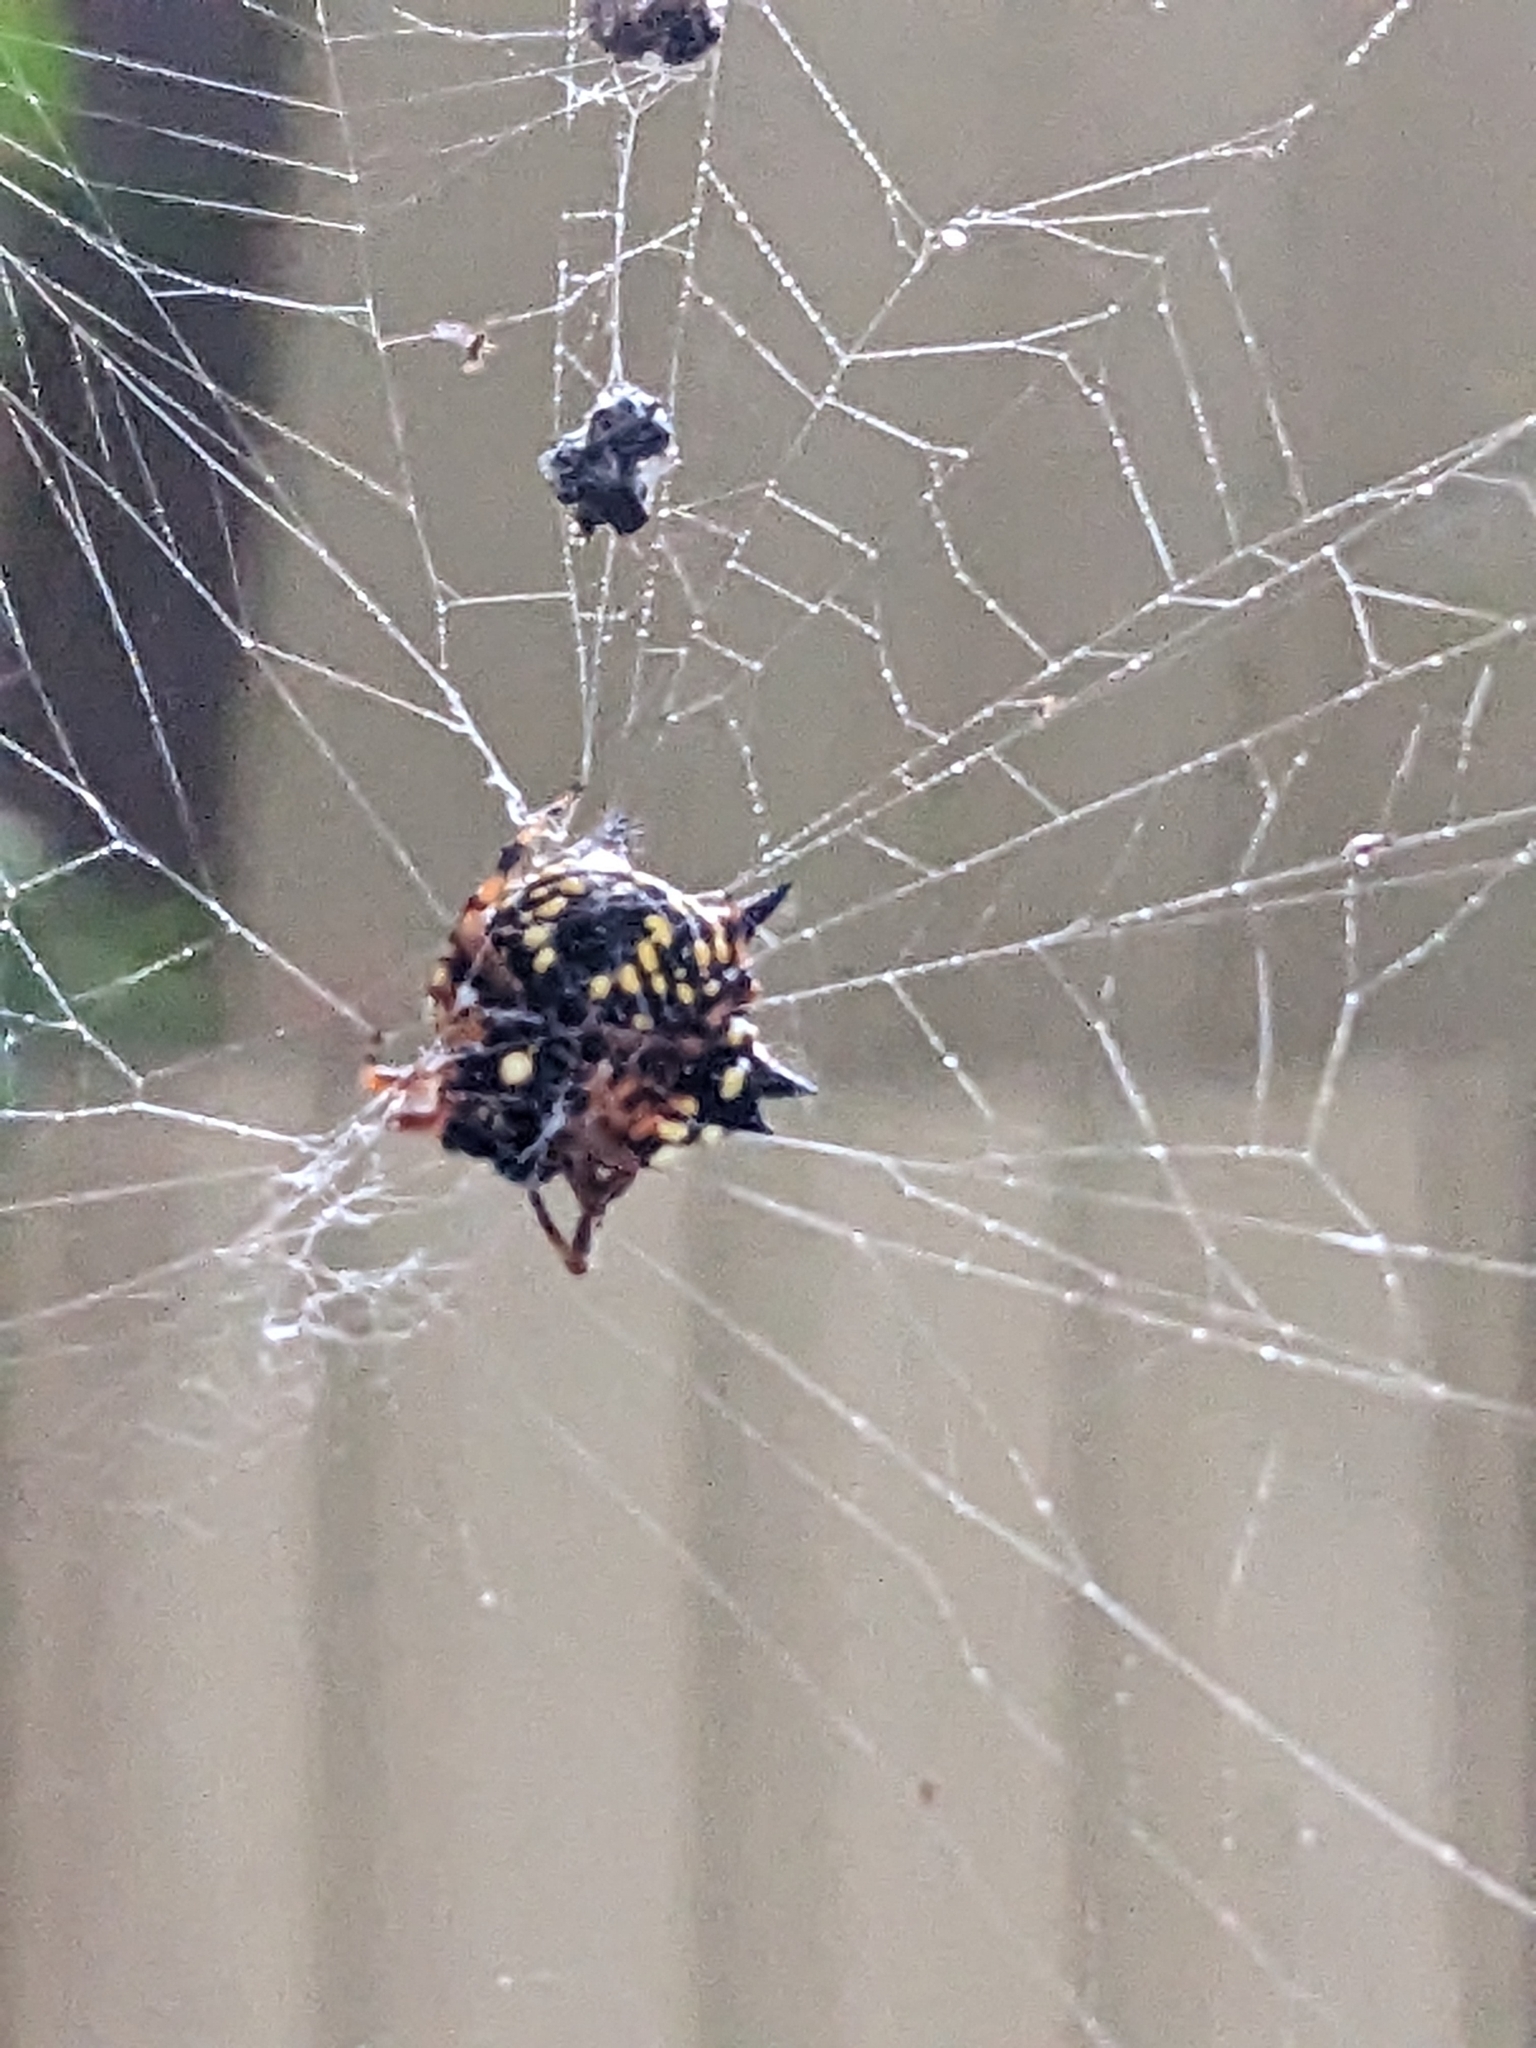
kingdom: Animalia
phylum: Arthropoda
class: Arachnida
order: Araneae
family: Araneidae
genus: Austracantha
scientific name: Austracantha minax
